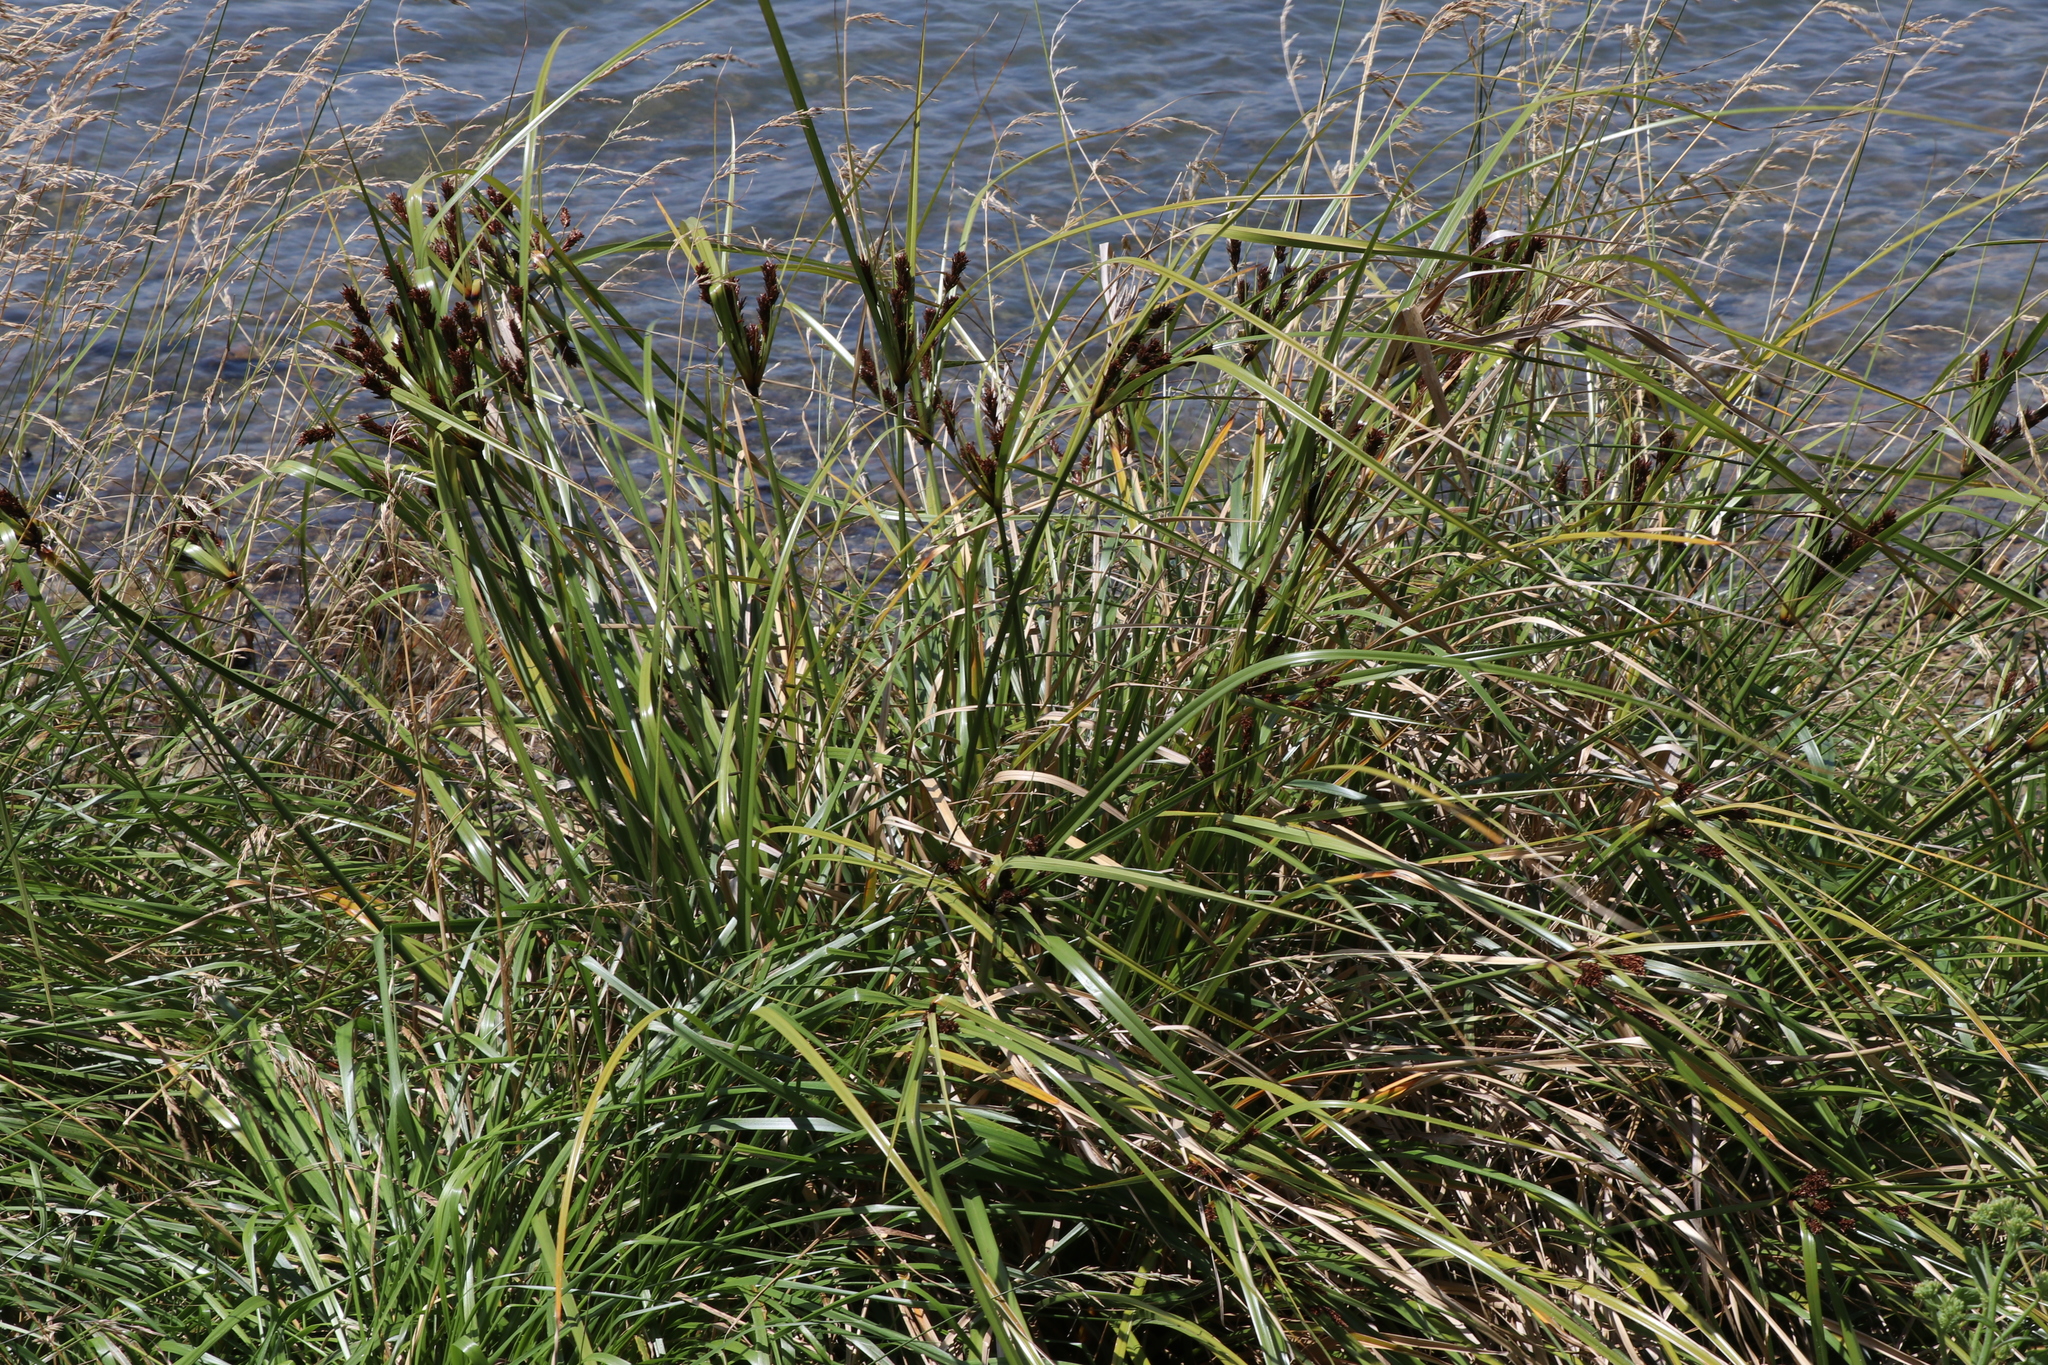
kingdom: Plantae
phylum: Tracheophyta
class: Liliopsida
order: Poales
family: Cyperaceae
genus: Cyperus
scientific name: Cyperus ustulatus
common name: Giant umbrella-sedge
